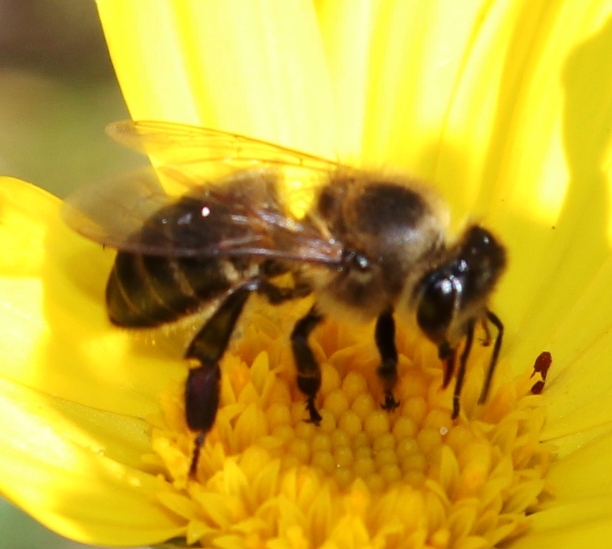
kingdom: Animalia
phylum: Arthropoda
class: Insecta
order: Hymenoptera
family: Apidae
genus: Apis
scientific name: Apis mellifera
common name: Honey bee
